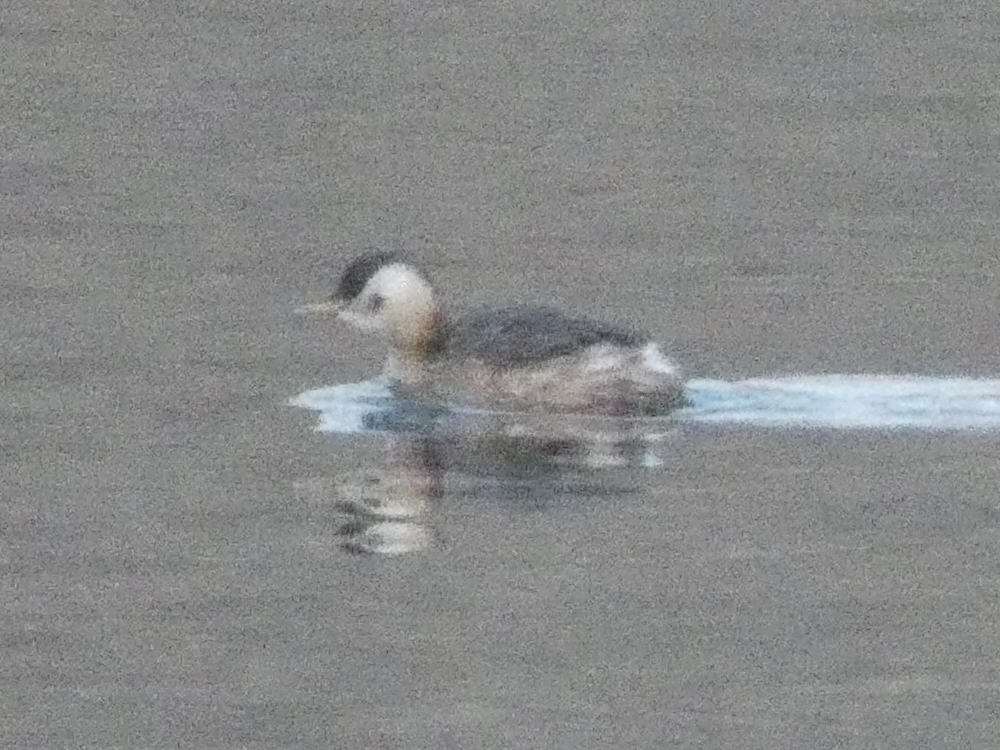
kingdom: Animalia
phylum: Chordata
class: Aves
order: Podicipediformes
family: Podicipedidae
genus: Tachybaptus
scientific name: Tachybaptus ruficollis
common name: Little grebe
